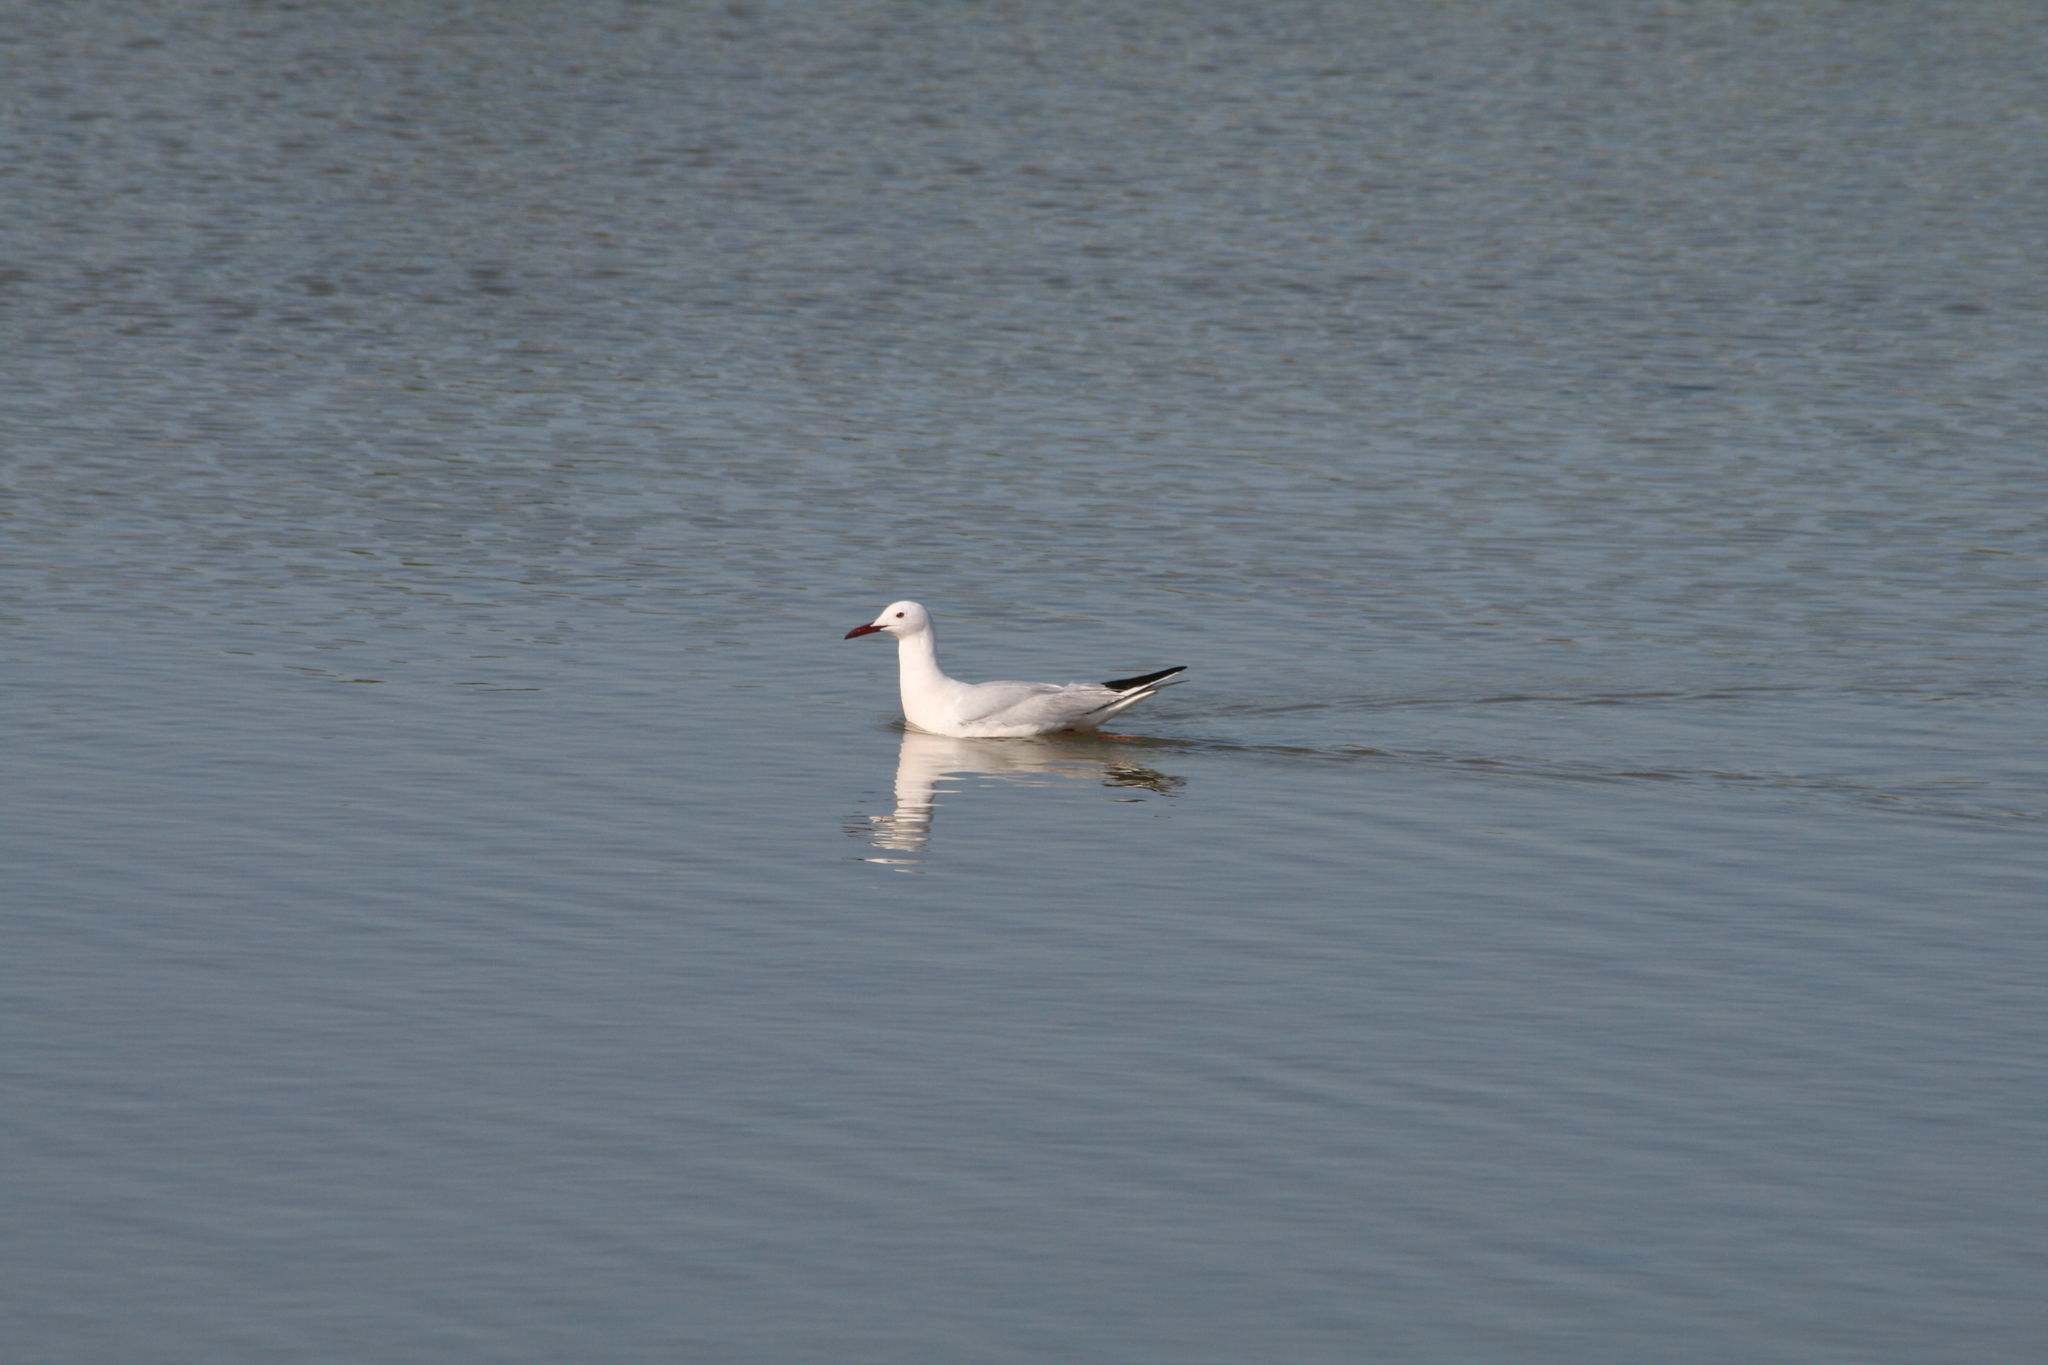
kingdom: Animalia
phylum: Chordata
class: Aves
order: Charadriiformes
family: Laridae
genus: Chroicocephalus
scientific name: Chroicocephalus genei
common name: Slender-billed gull
